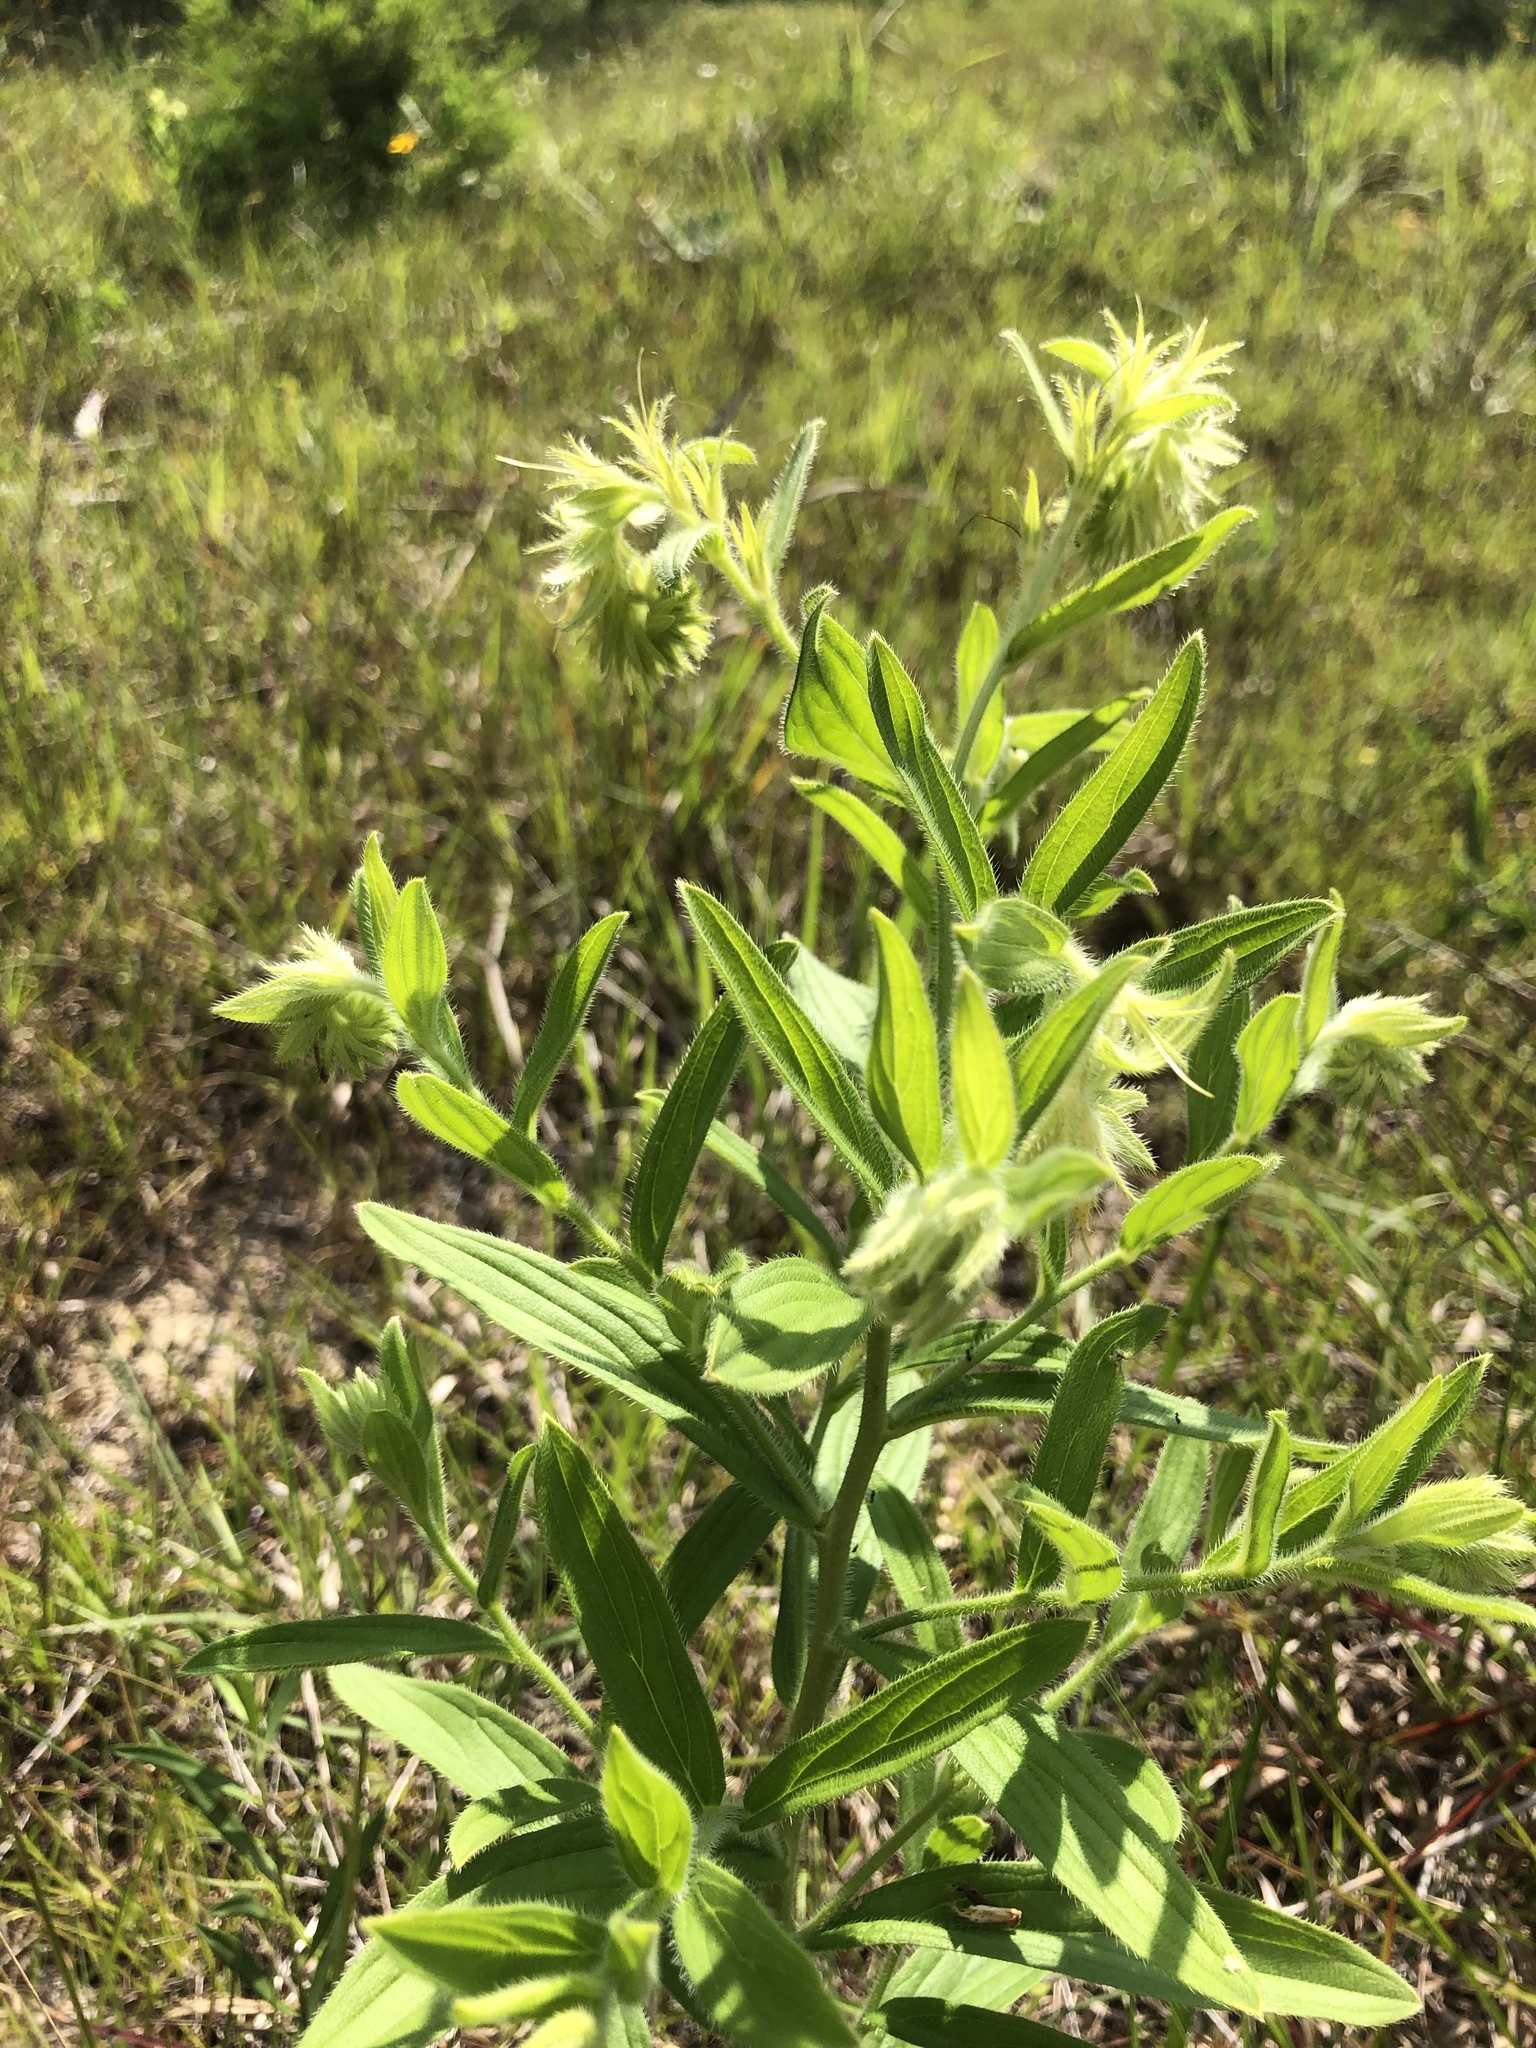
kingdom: Plantae
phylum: Tracheophyta
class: Magnoliopsida
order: Boraginales
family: Boraginaceae
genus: Lithospermum
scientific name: Lithospermum virginianum
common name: Eastern false gromwell
